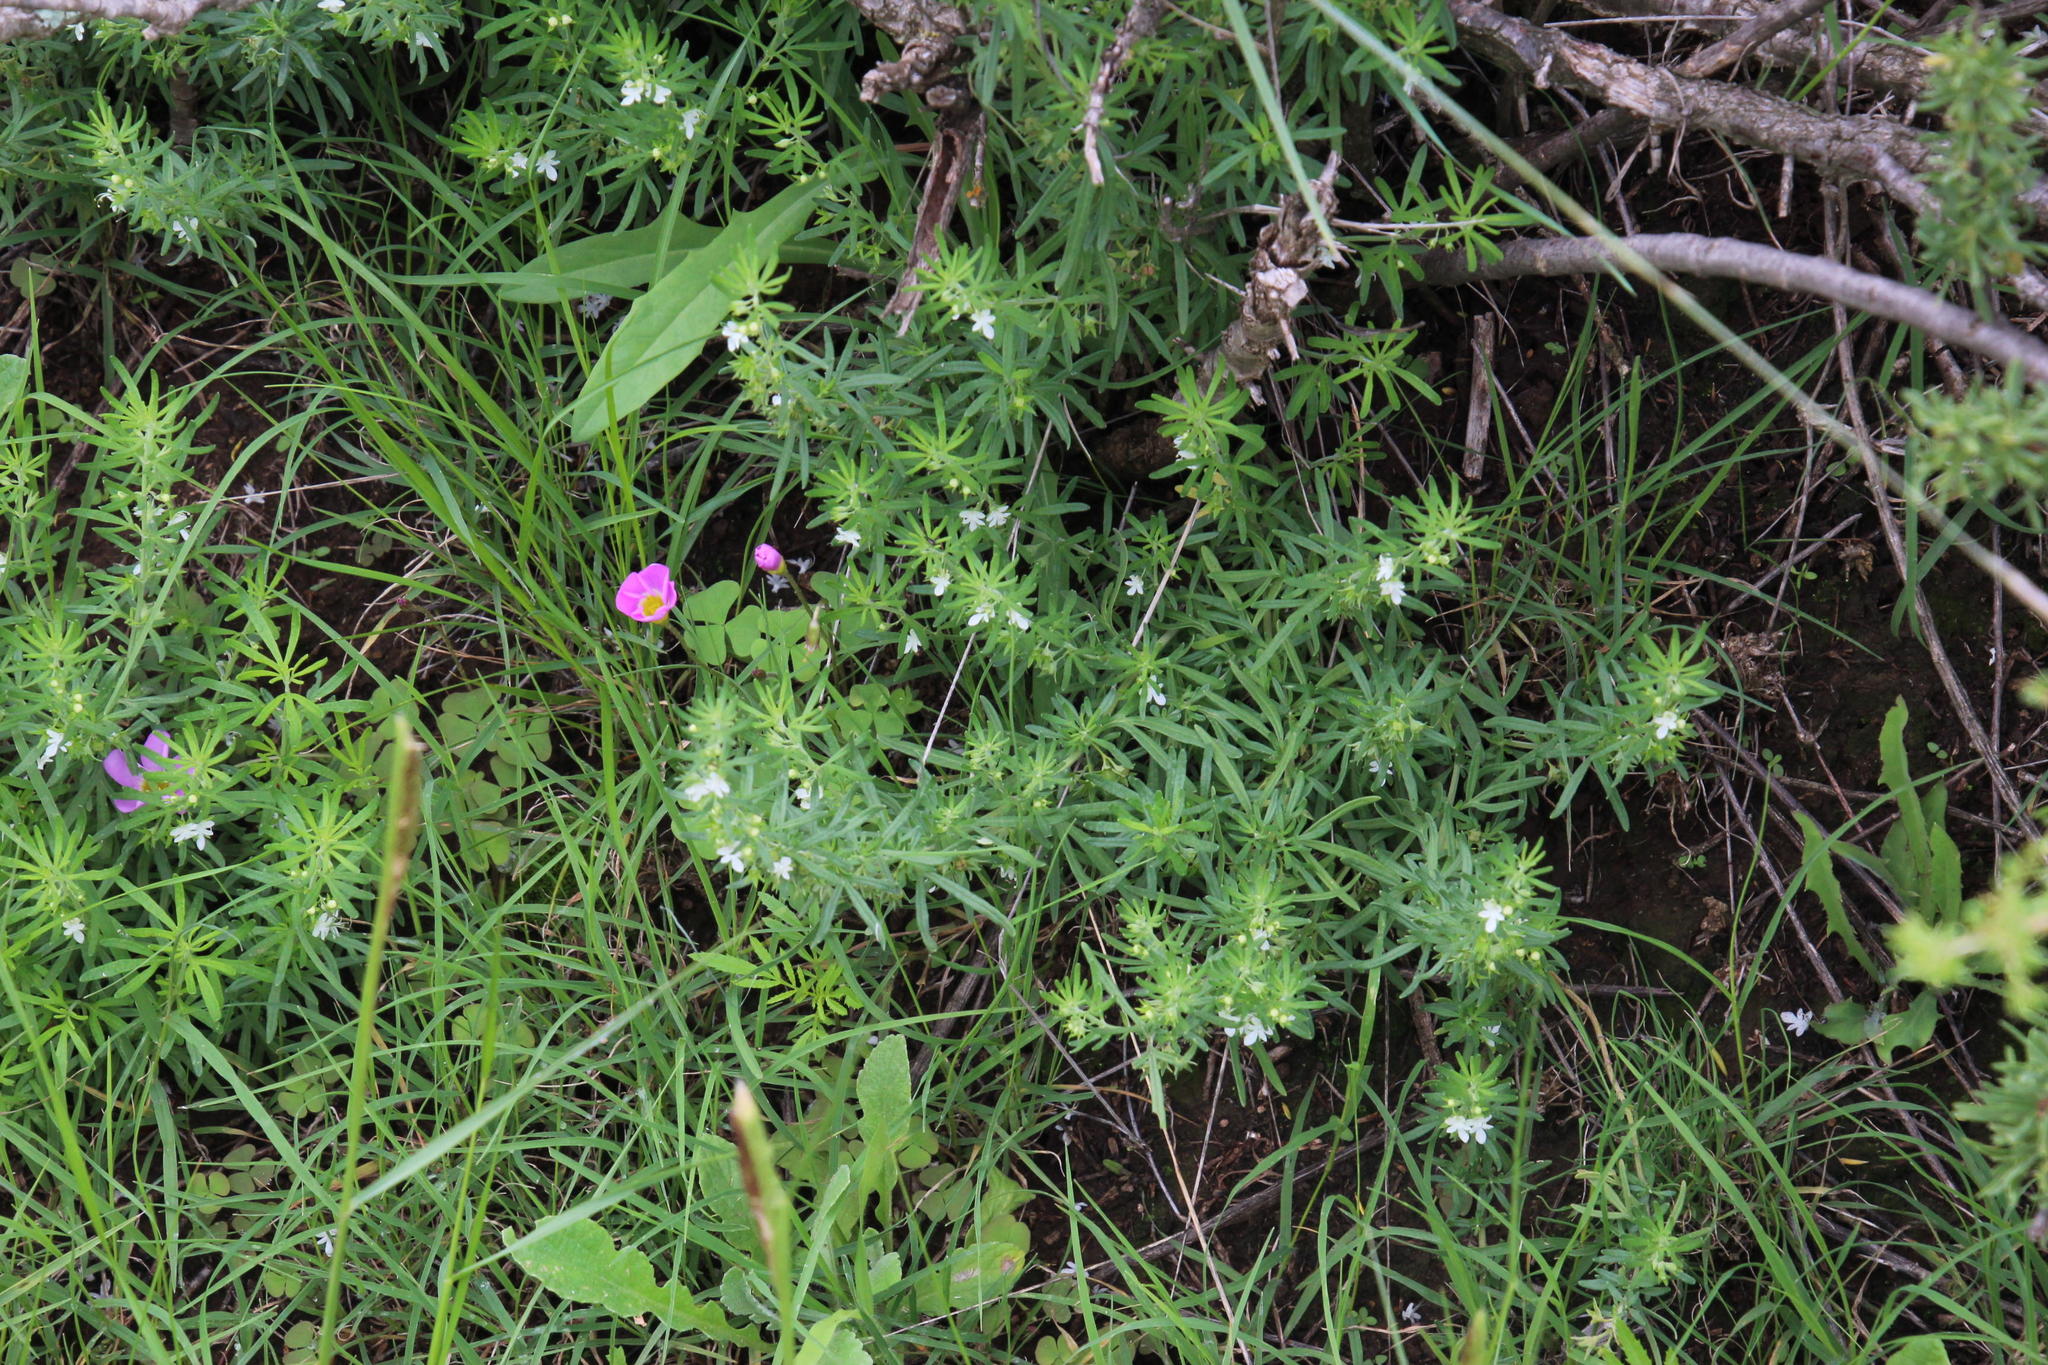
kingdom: Plantae
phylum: Tracheophyta
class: Magnoliopsida
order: Lamiales
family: Lamiaceae
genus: Teucrium
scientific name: Teucrium trifidum
